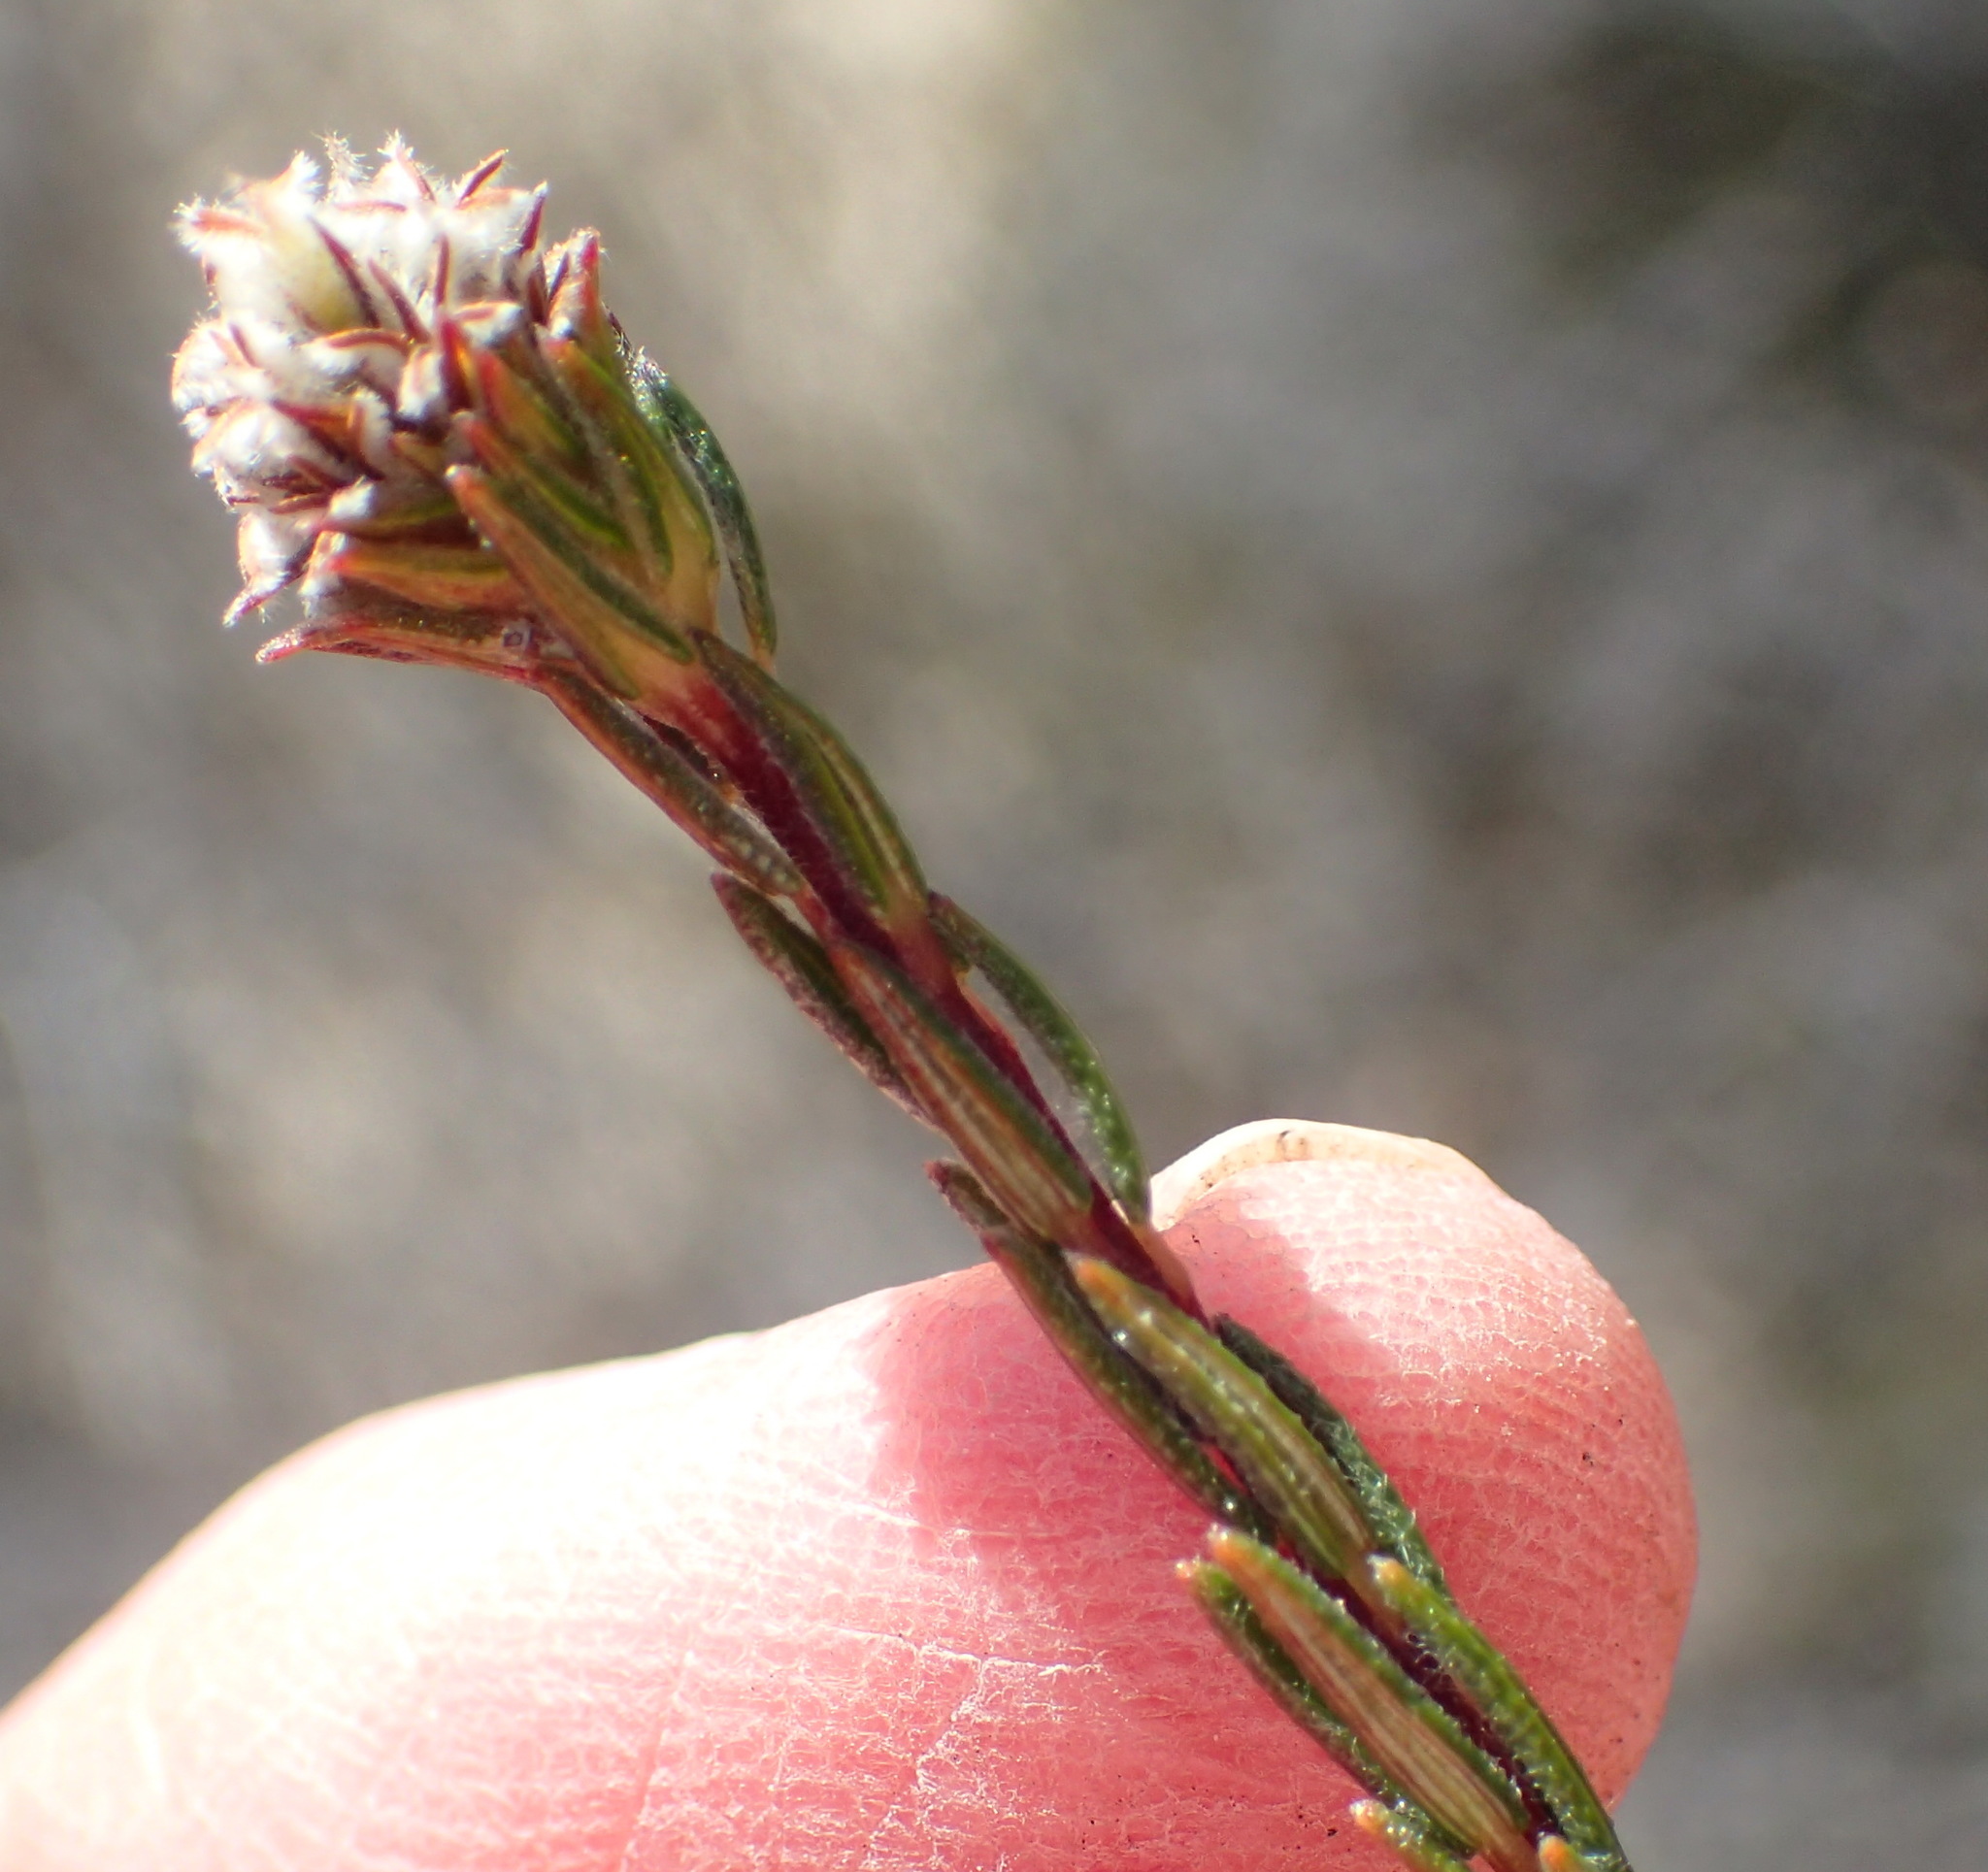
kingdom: Plantae
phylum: Tracheophyta
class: Magnoliopsida
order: Rosales
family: Rhamnaceae
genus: Phylica
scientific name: Phylica agathosmoides
